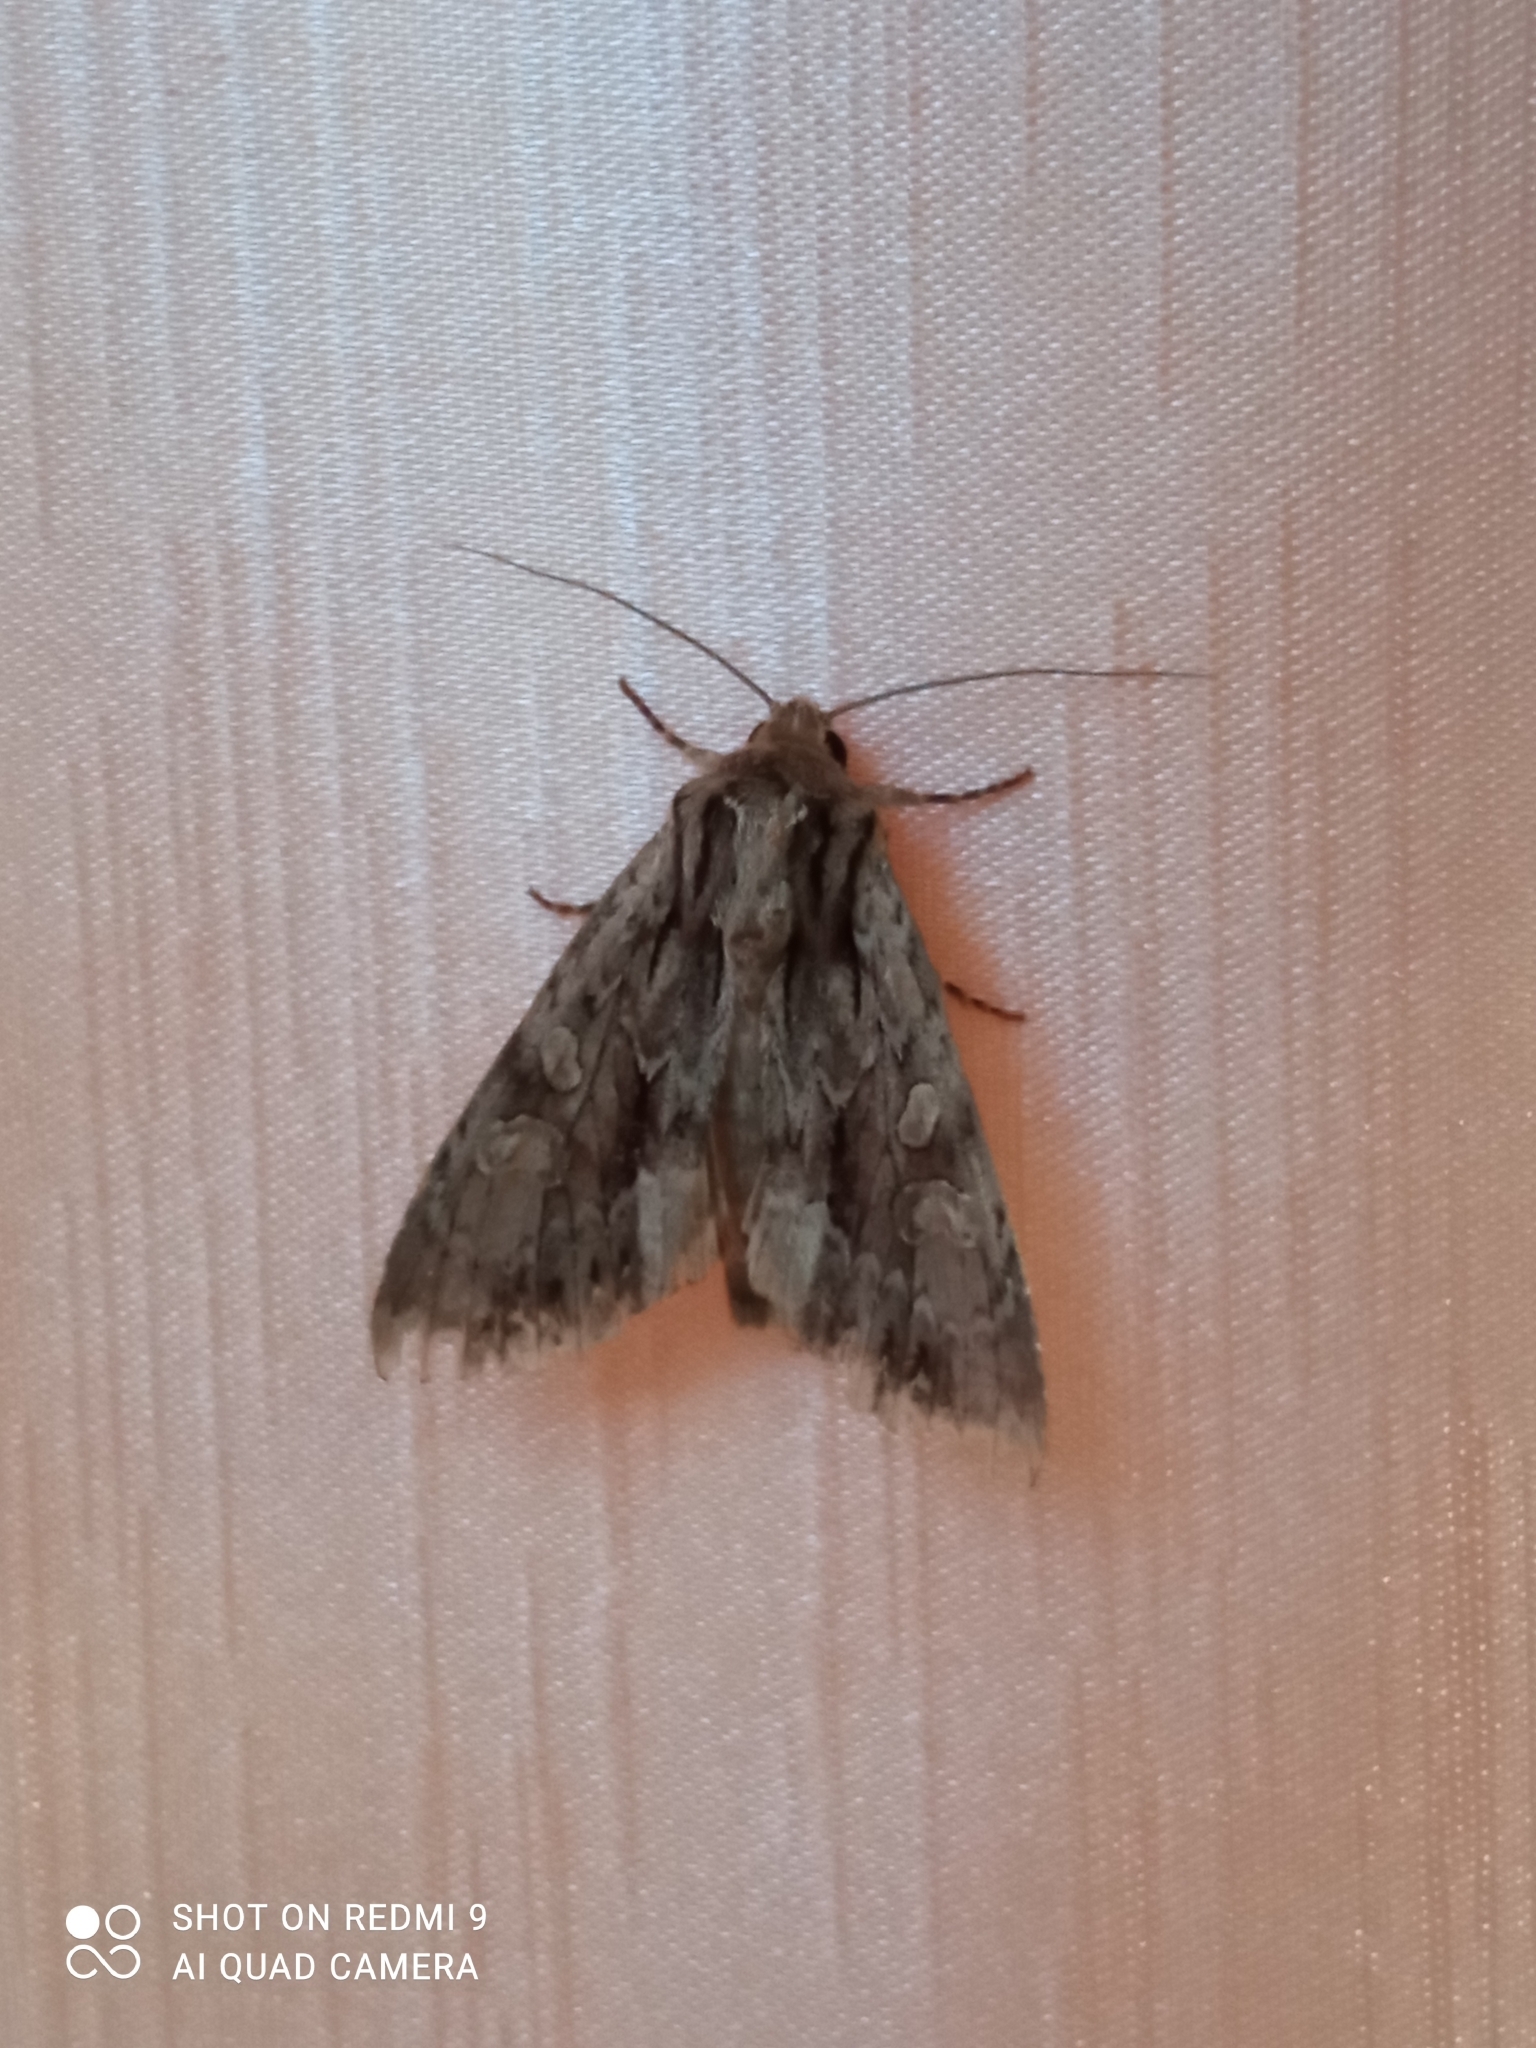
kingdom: Animalia
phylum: Arthropoda
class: Insecta
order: Lepidoptera
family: Noctuidae
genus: Apamea
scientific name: Apamea monoglypha
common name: Dark arches
